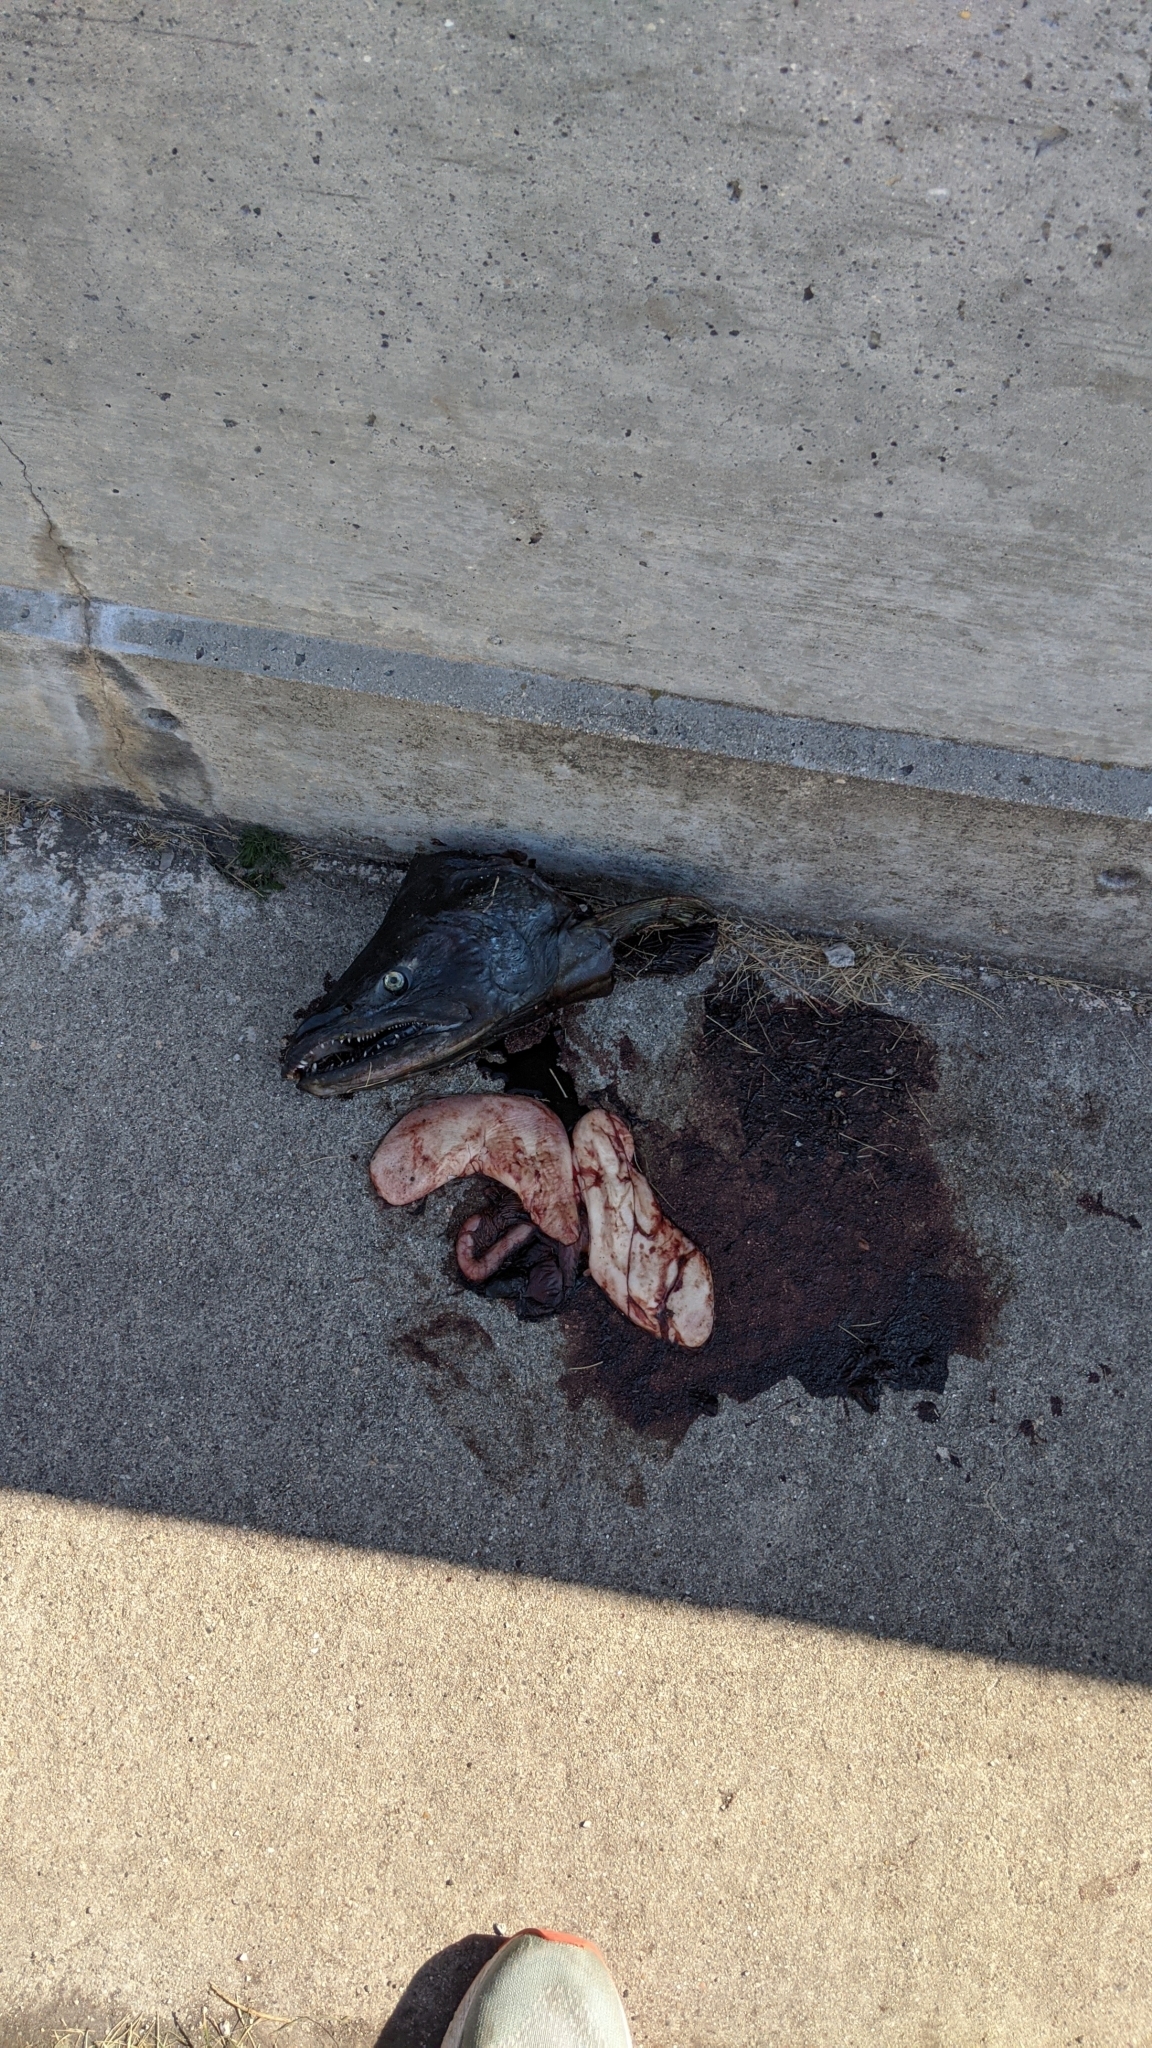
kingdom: Animalia
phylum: Chordata
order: Salmoniformes
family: Salmonidae
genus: Oncorhynchus
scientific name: Oncorhynchus tshawytscha
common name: Chinook salmon
